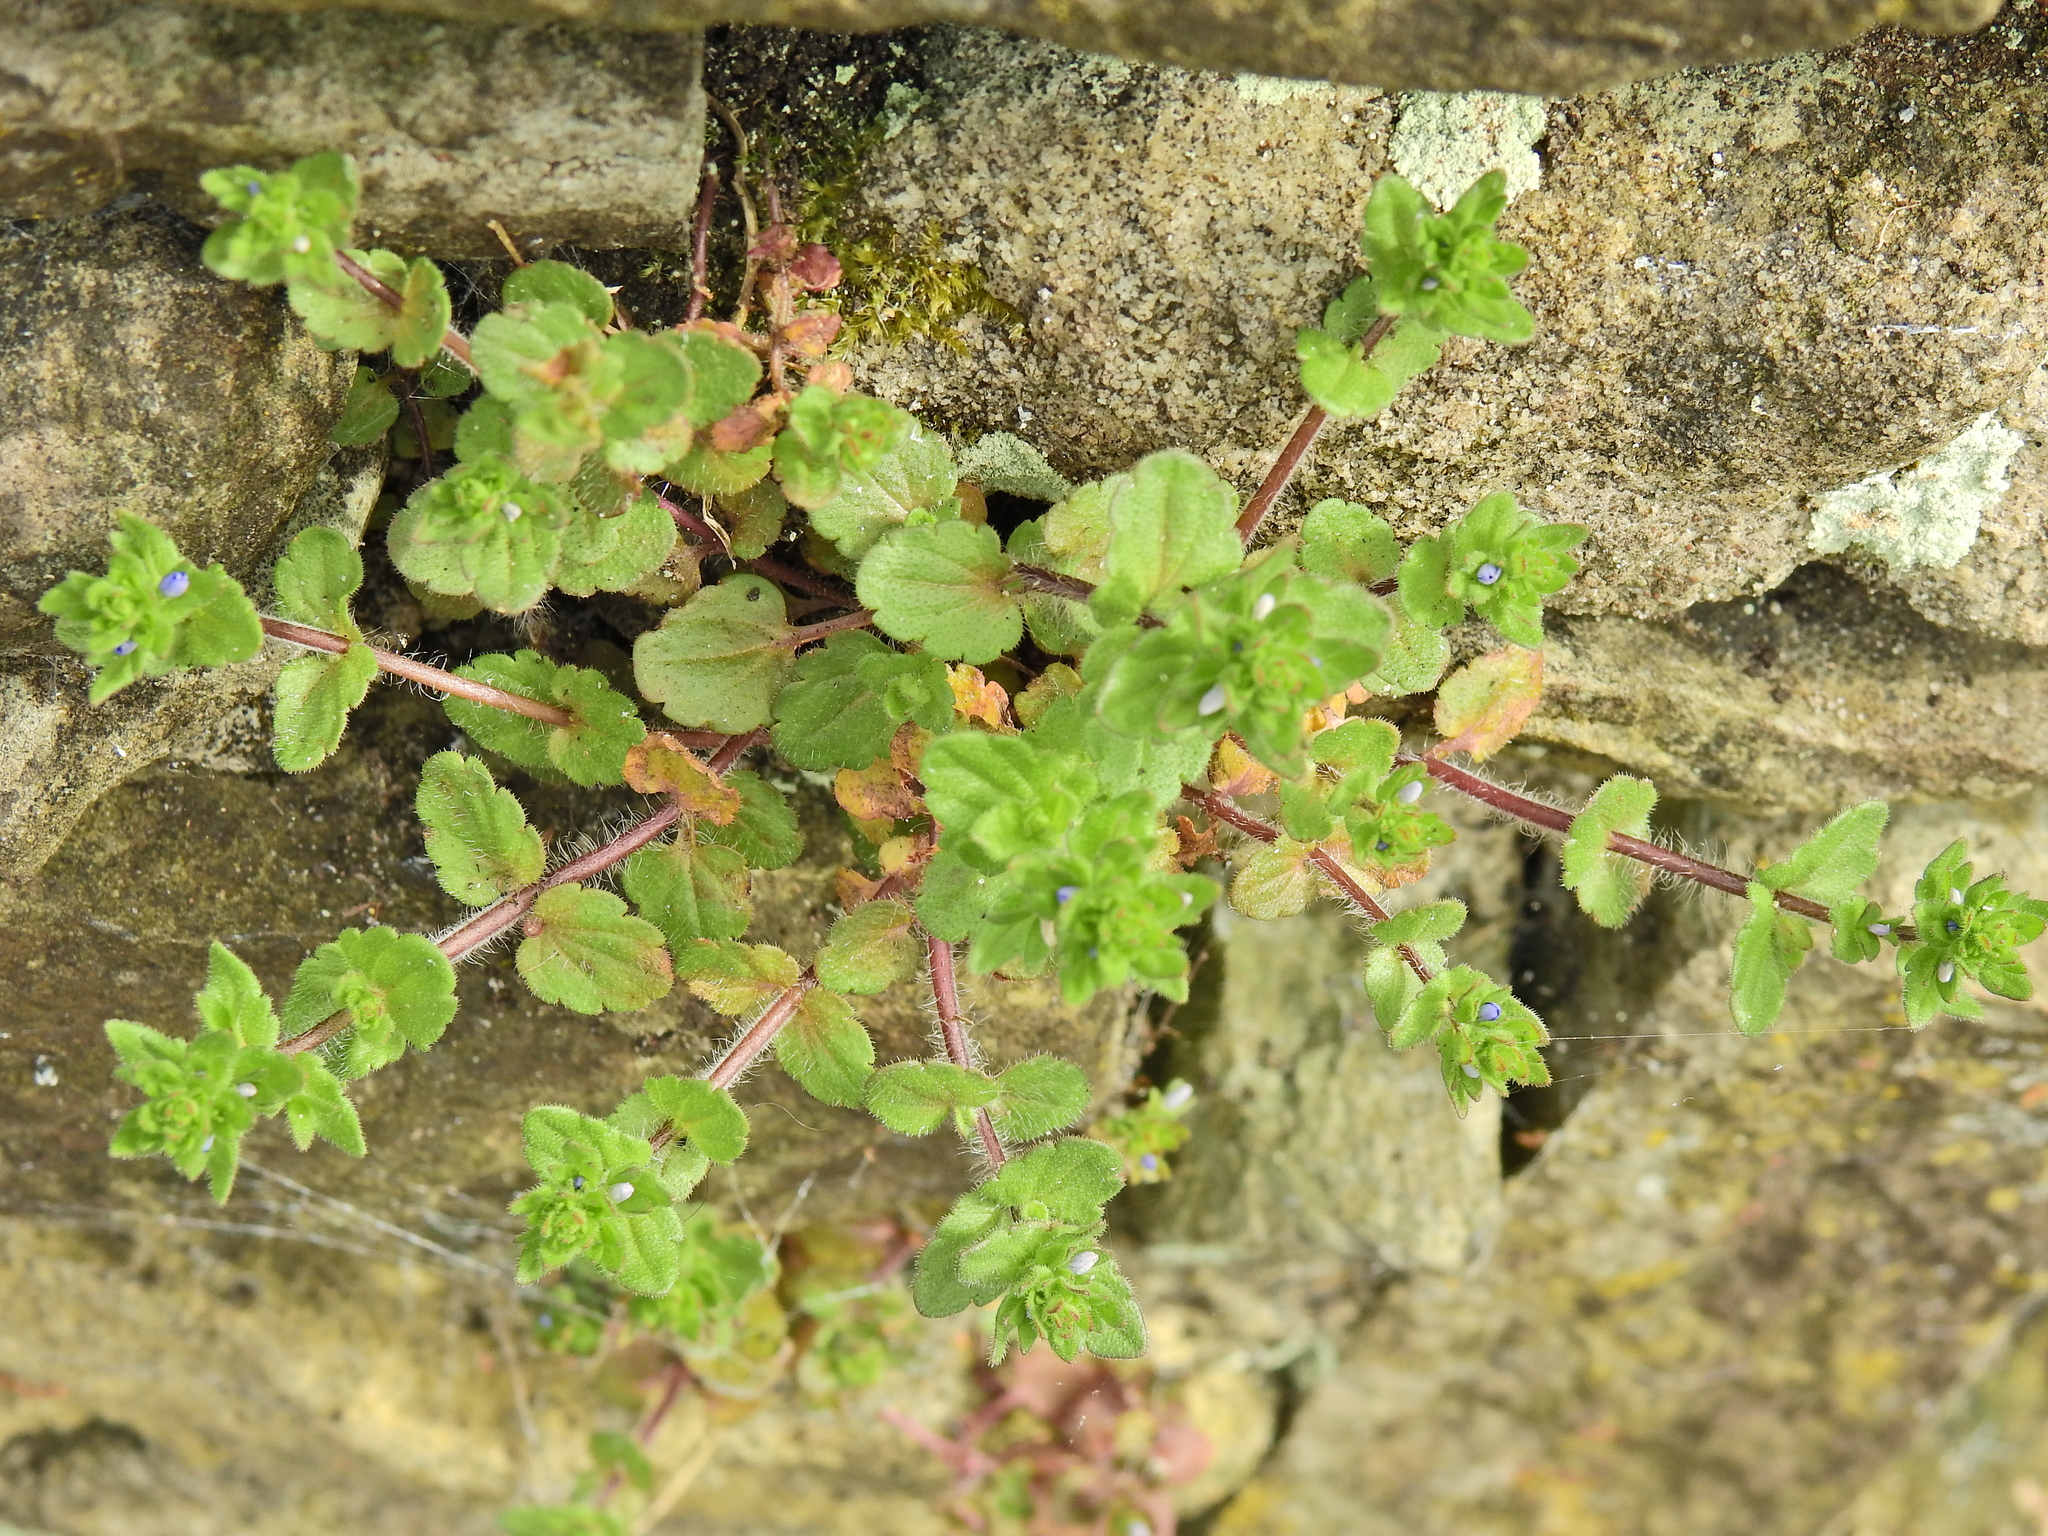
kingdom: Plantae
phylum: Tracheophyta
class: Magnoliopsida
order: Lamiales
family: Plantaginaceae
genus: Veronica
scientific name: Veronica arvensis
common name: Corn speedwell
